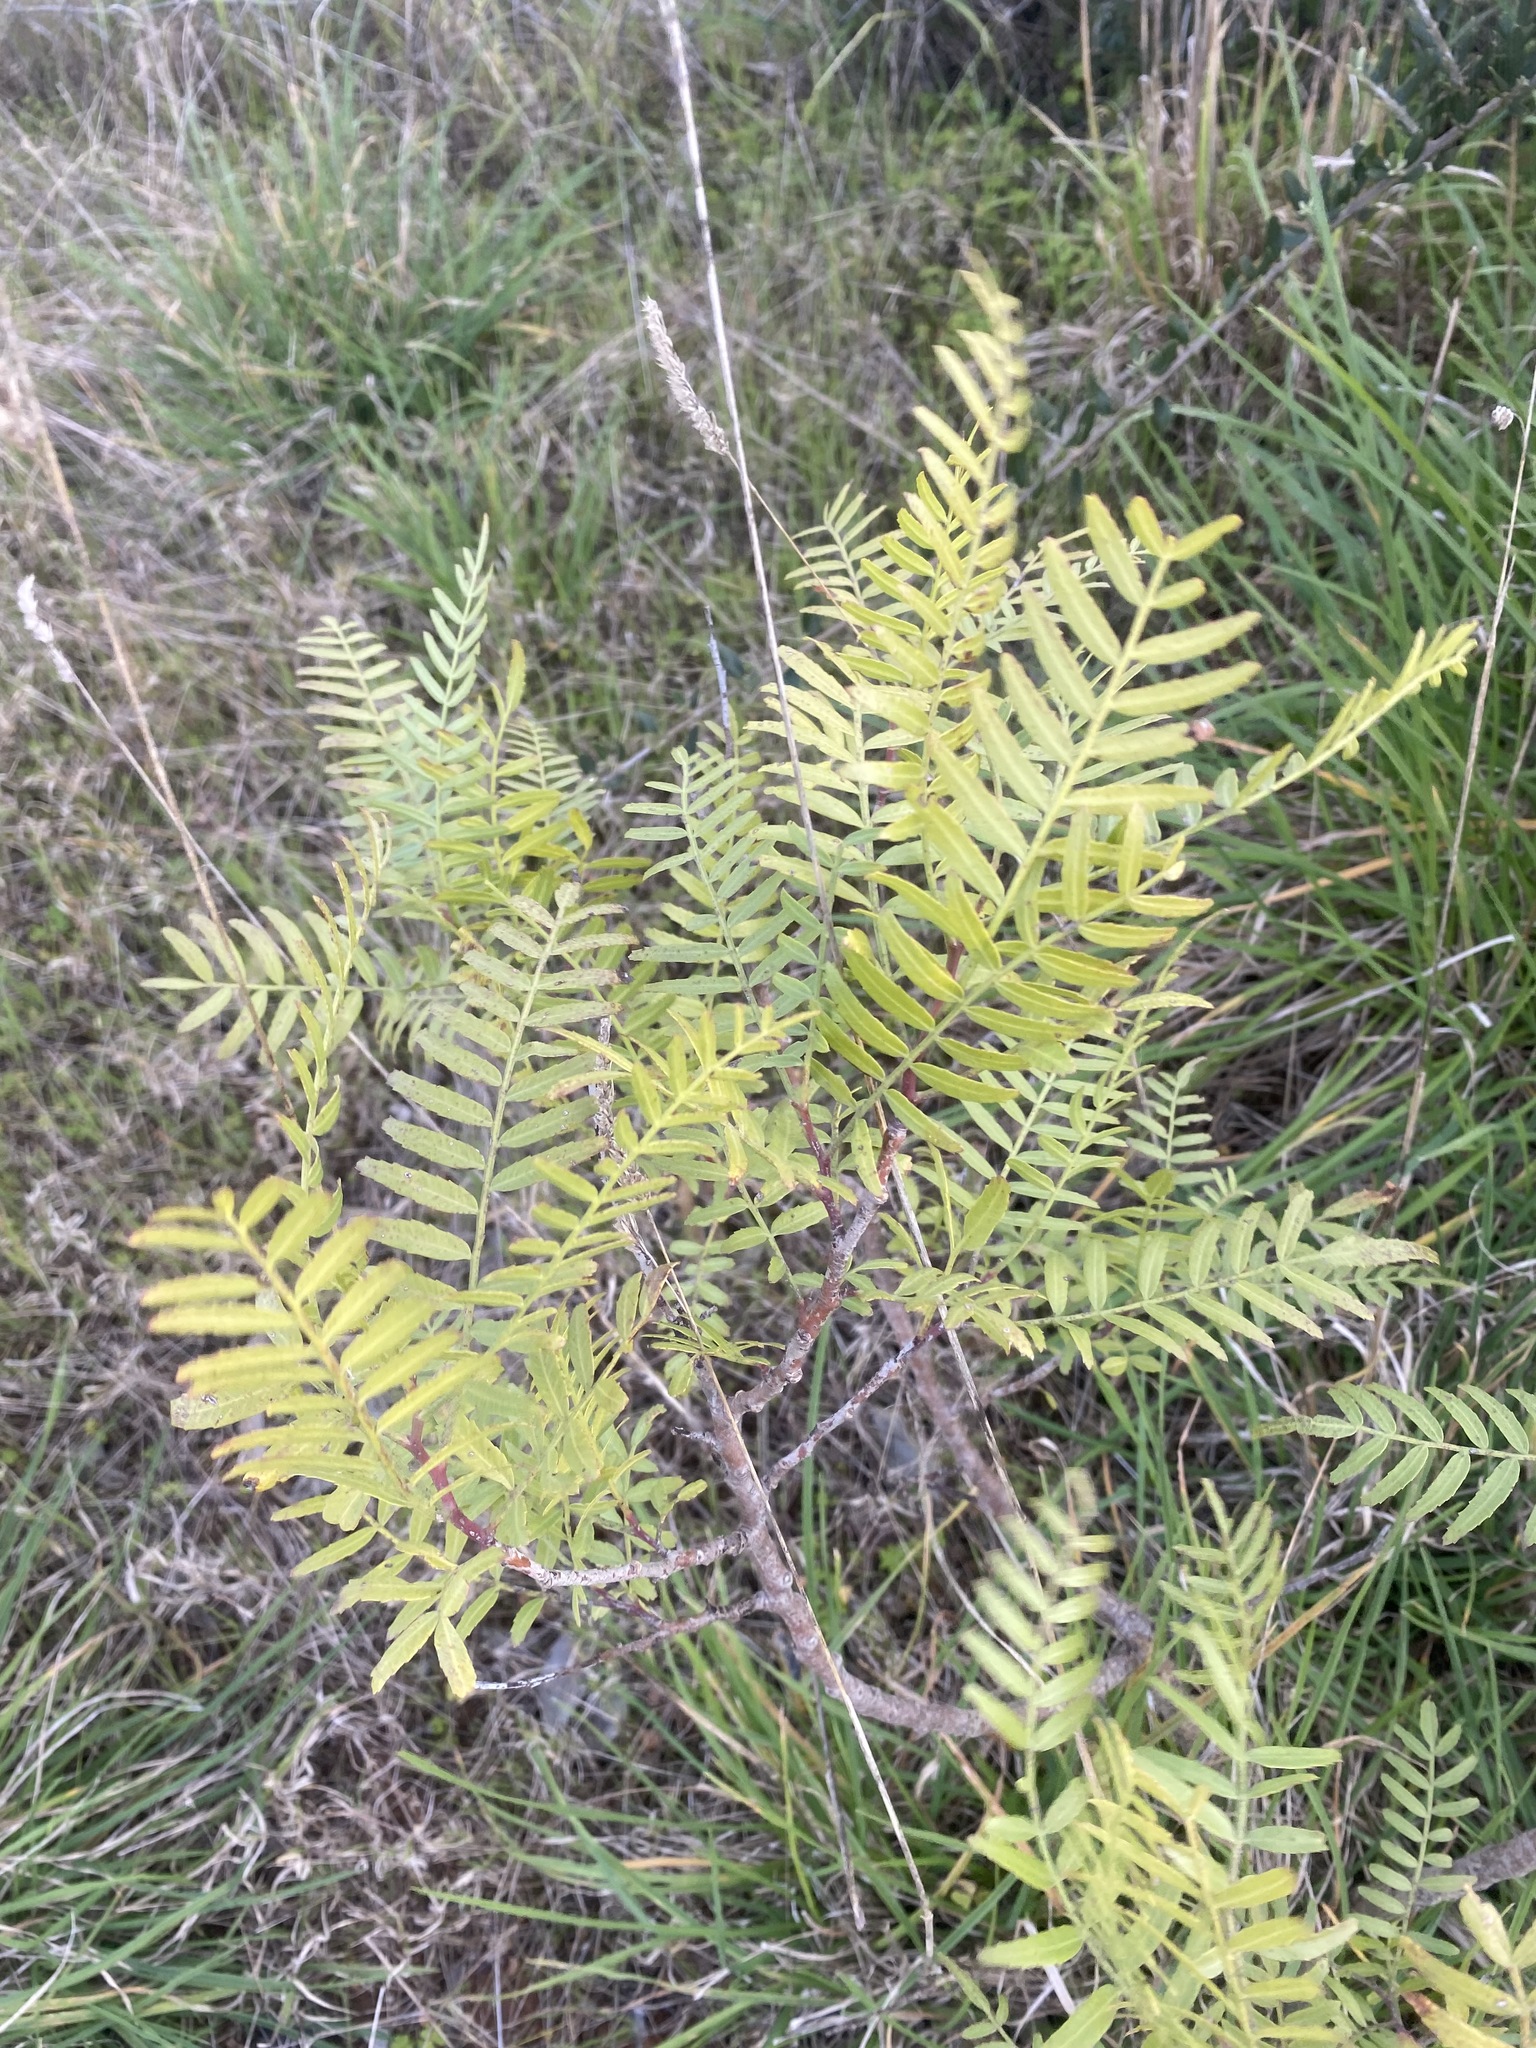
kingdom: Plantae
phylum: Tracheophyta
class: Magnoliopsida
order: Sapindales
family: Anacardiaceae
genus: Schinus
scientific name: Schinus molle
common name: Peruvian peppertree
